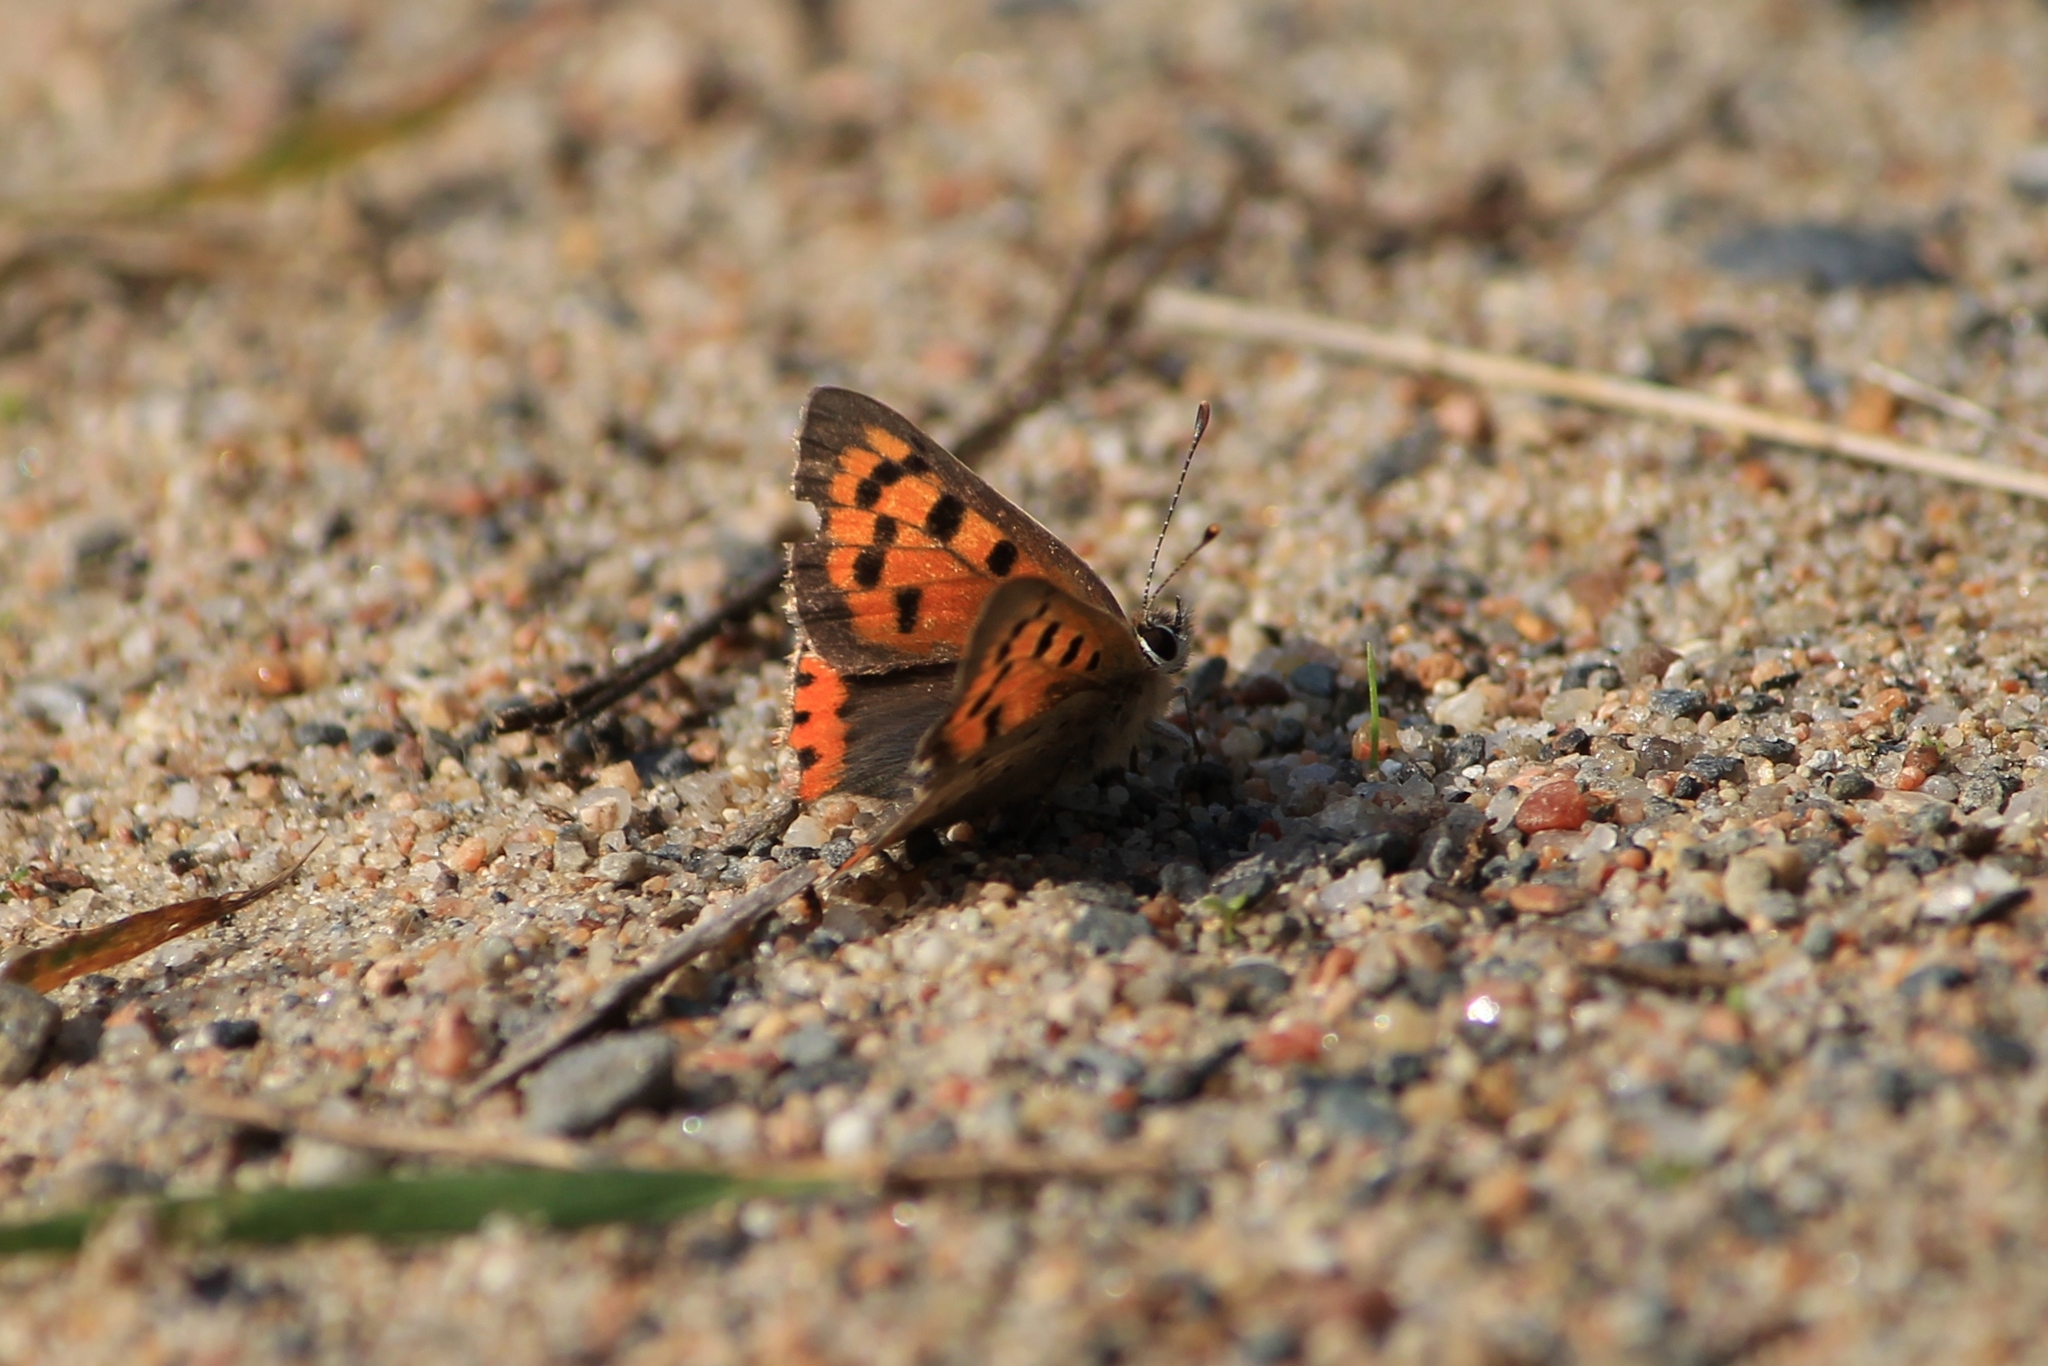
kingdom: Animalia
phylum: Arthropoda
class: Insecta
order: Lepidoptera
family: Lycaenidae
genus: Lycaena
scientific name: Lycaena phlaeas
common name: Small copper
